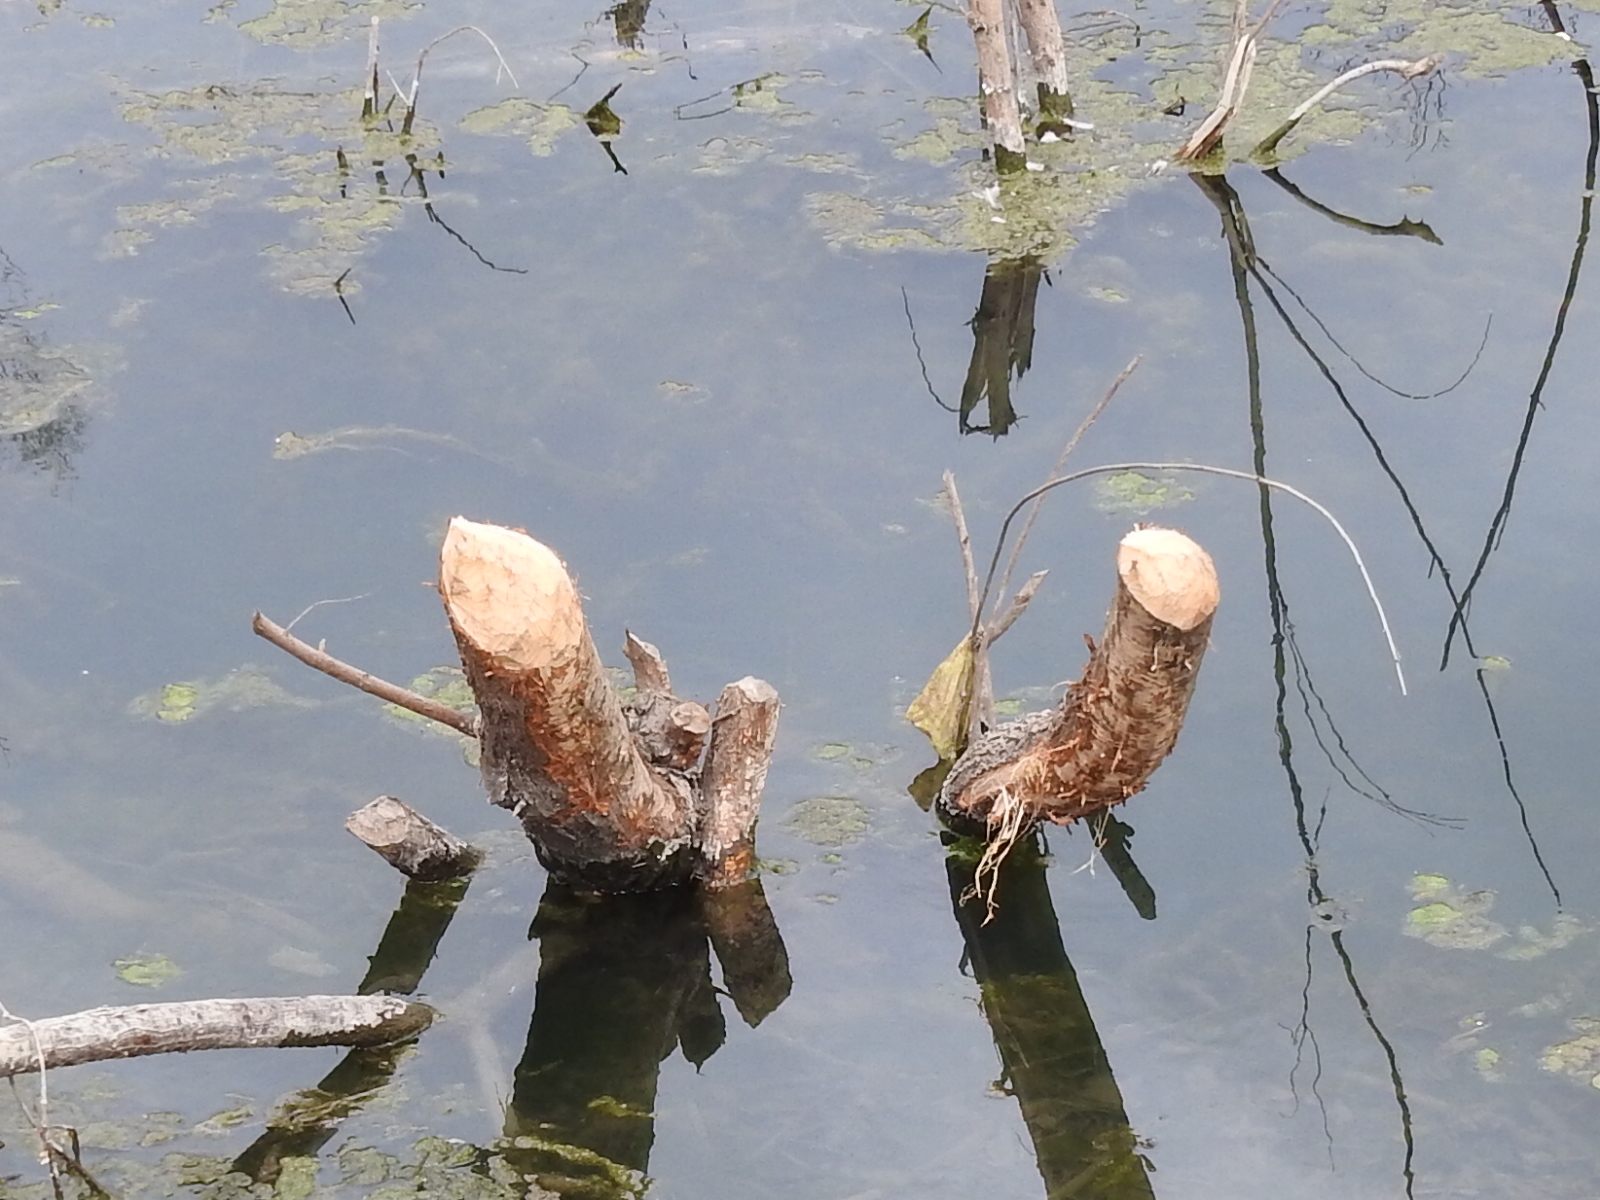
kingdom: Animalia
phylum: Chordata
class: Mammalia
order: Rodentia
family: Castoridae
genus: Castor
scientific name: Castor canadensis
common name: American beaver
